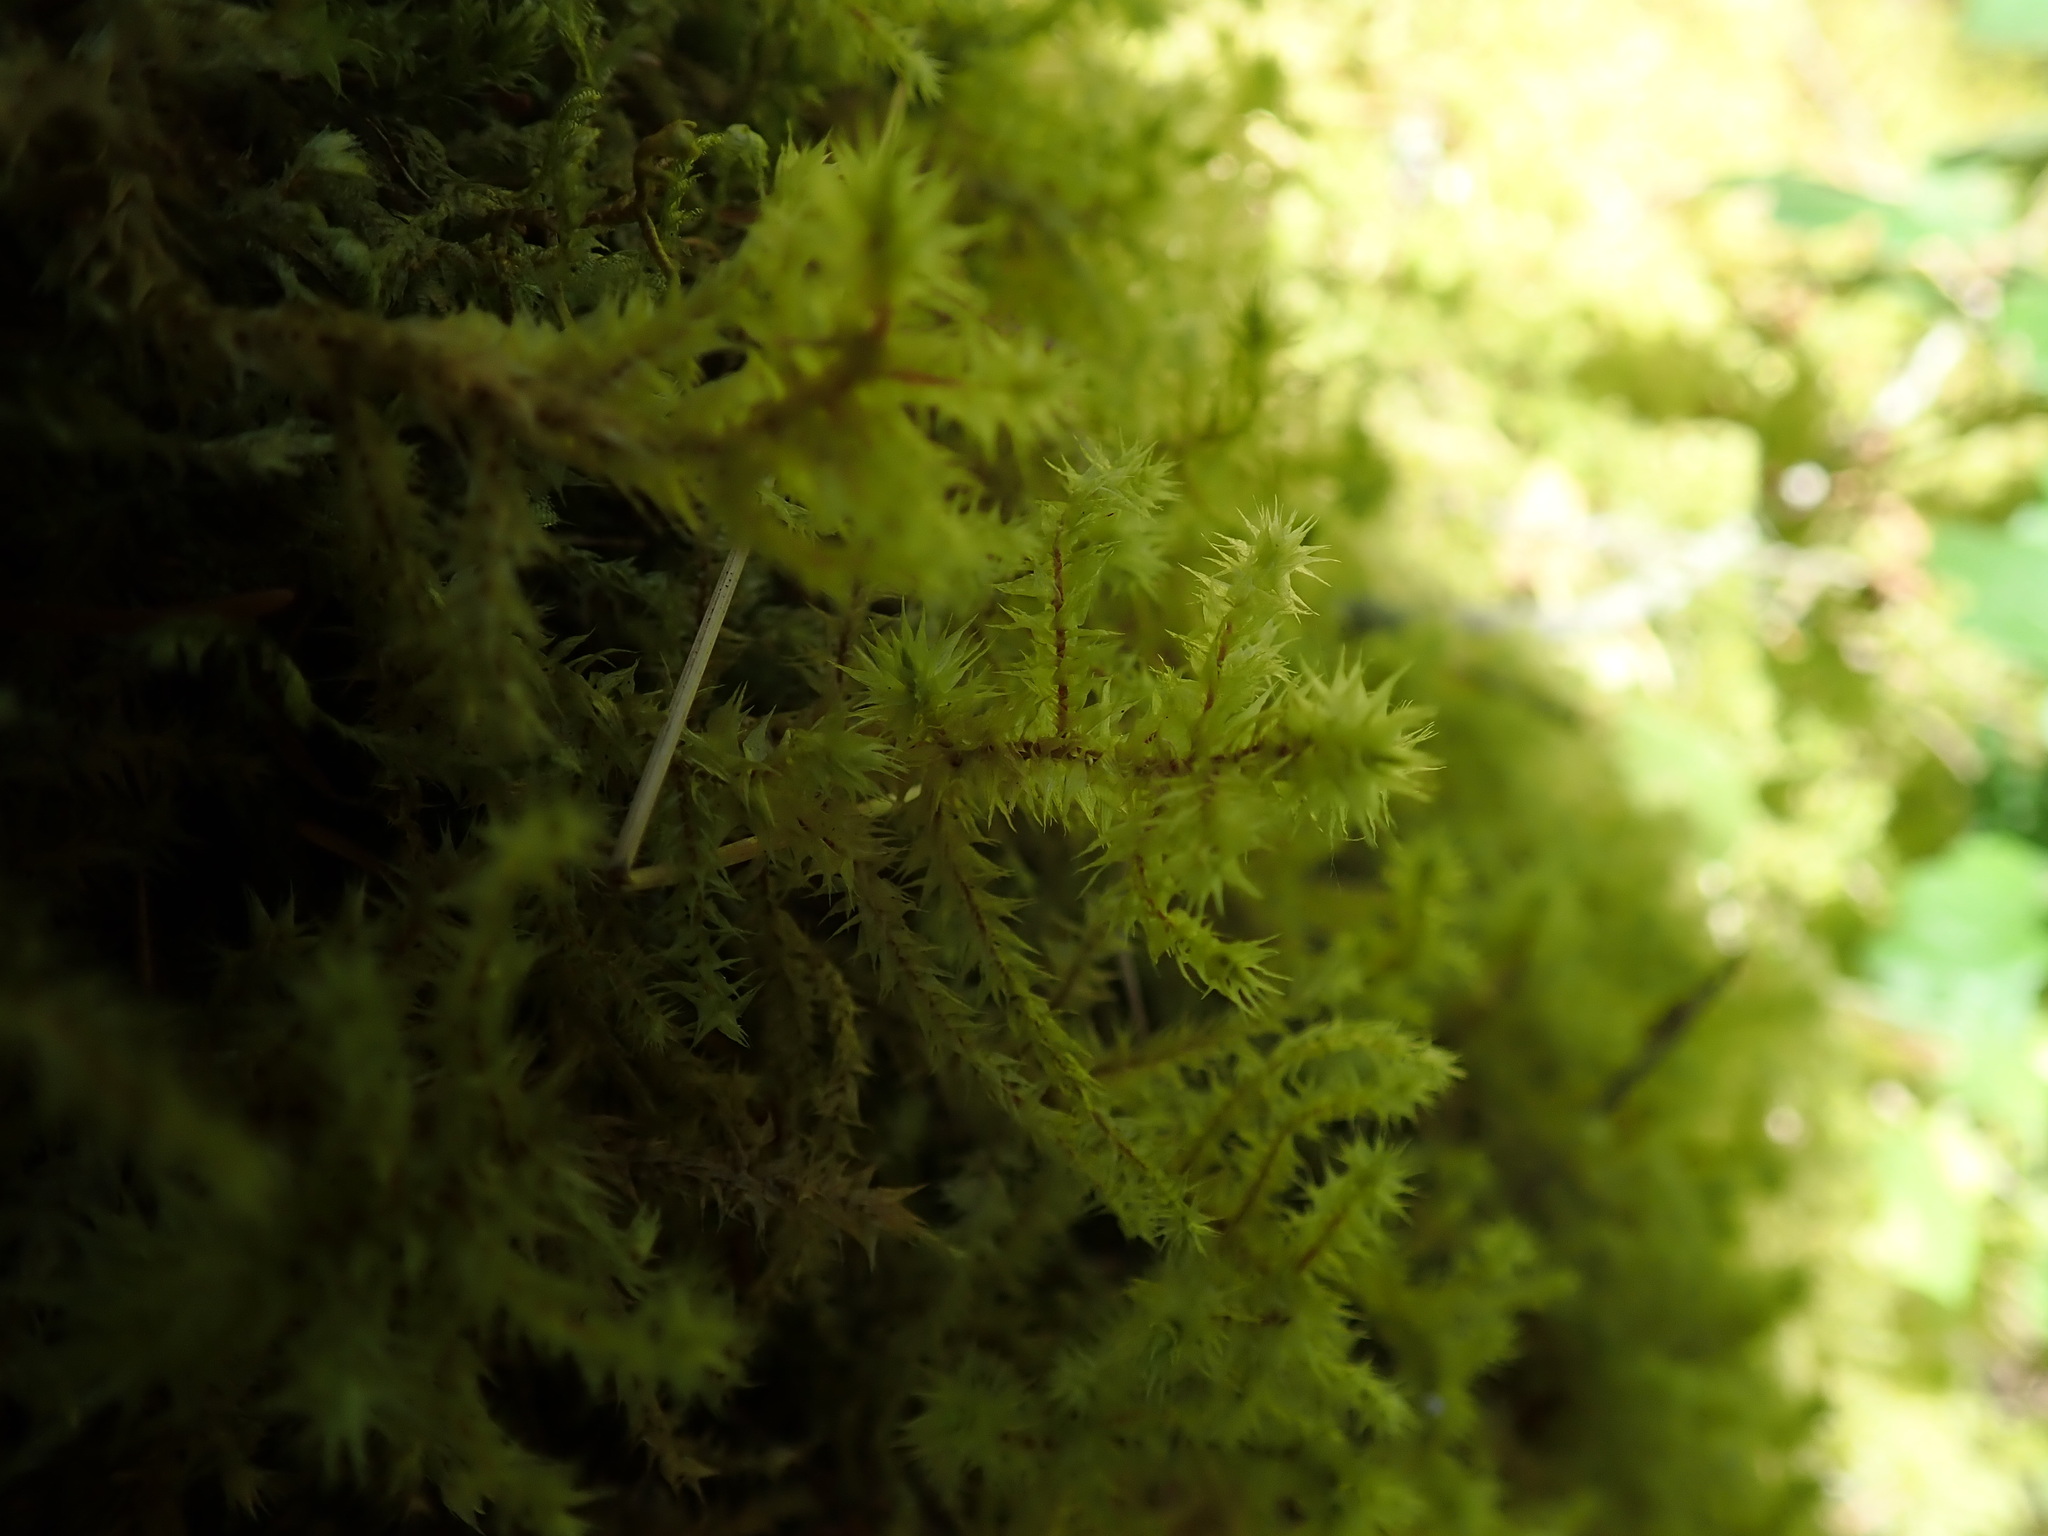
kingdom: Plantae
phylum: Bryophyta
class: Bryopsida
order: Hypnales
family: Hylocomiaceae
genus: Hylocomiadelphus
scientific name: Hylocomiadelphus triquetrus
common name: Rough goose neck moss
